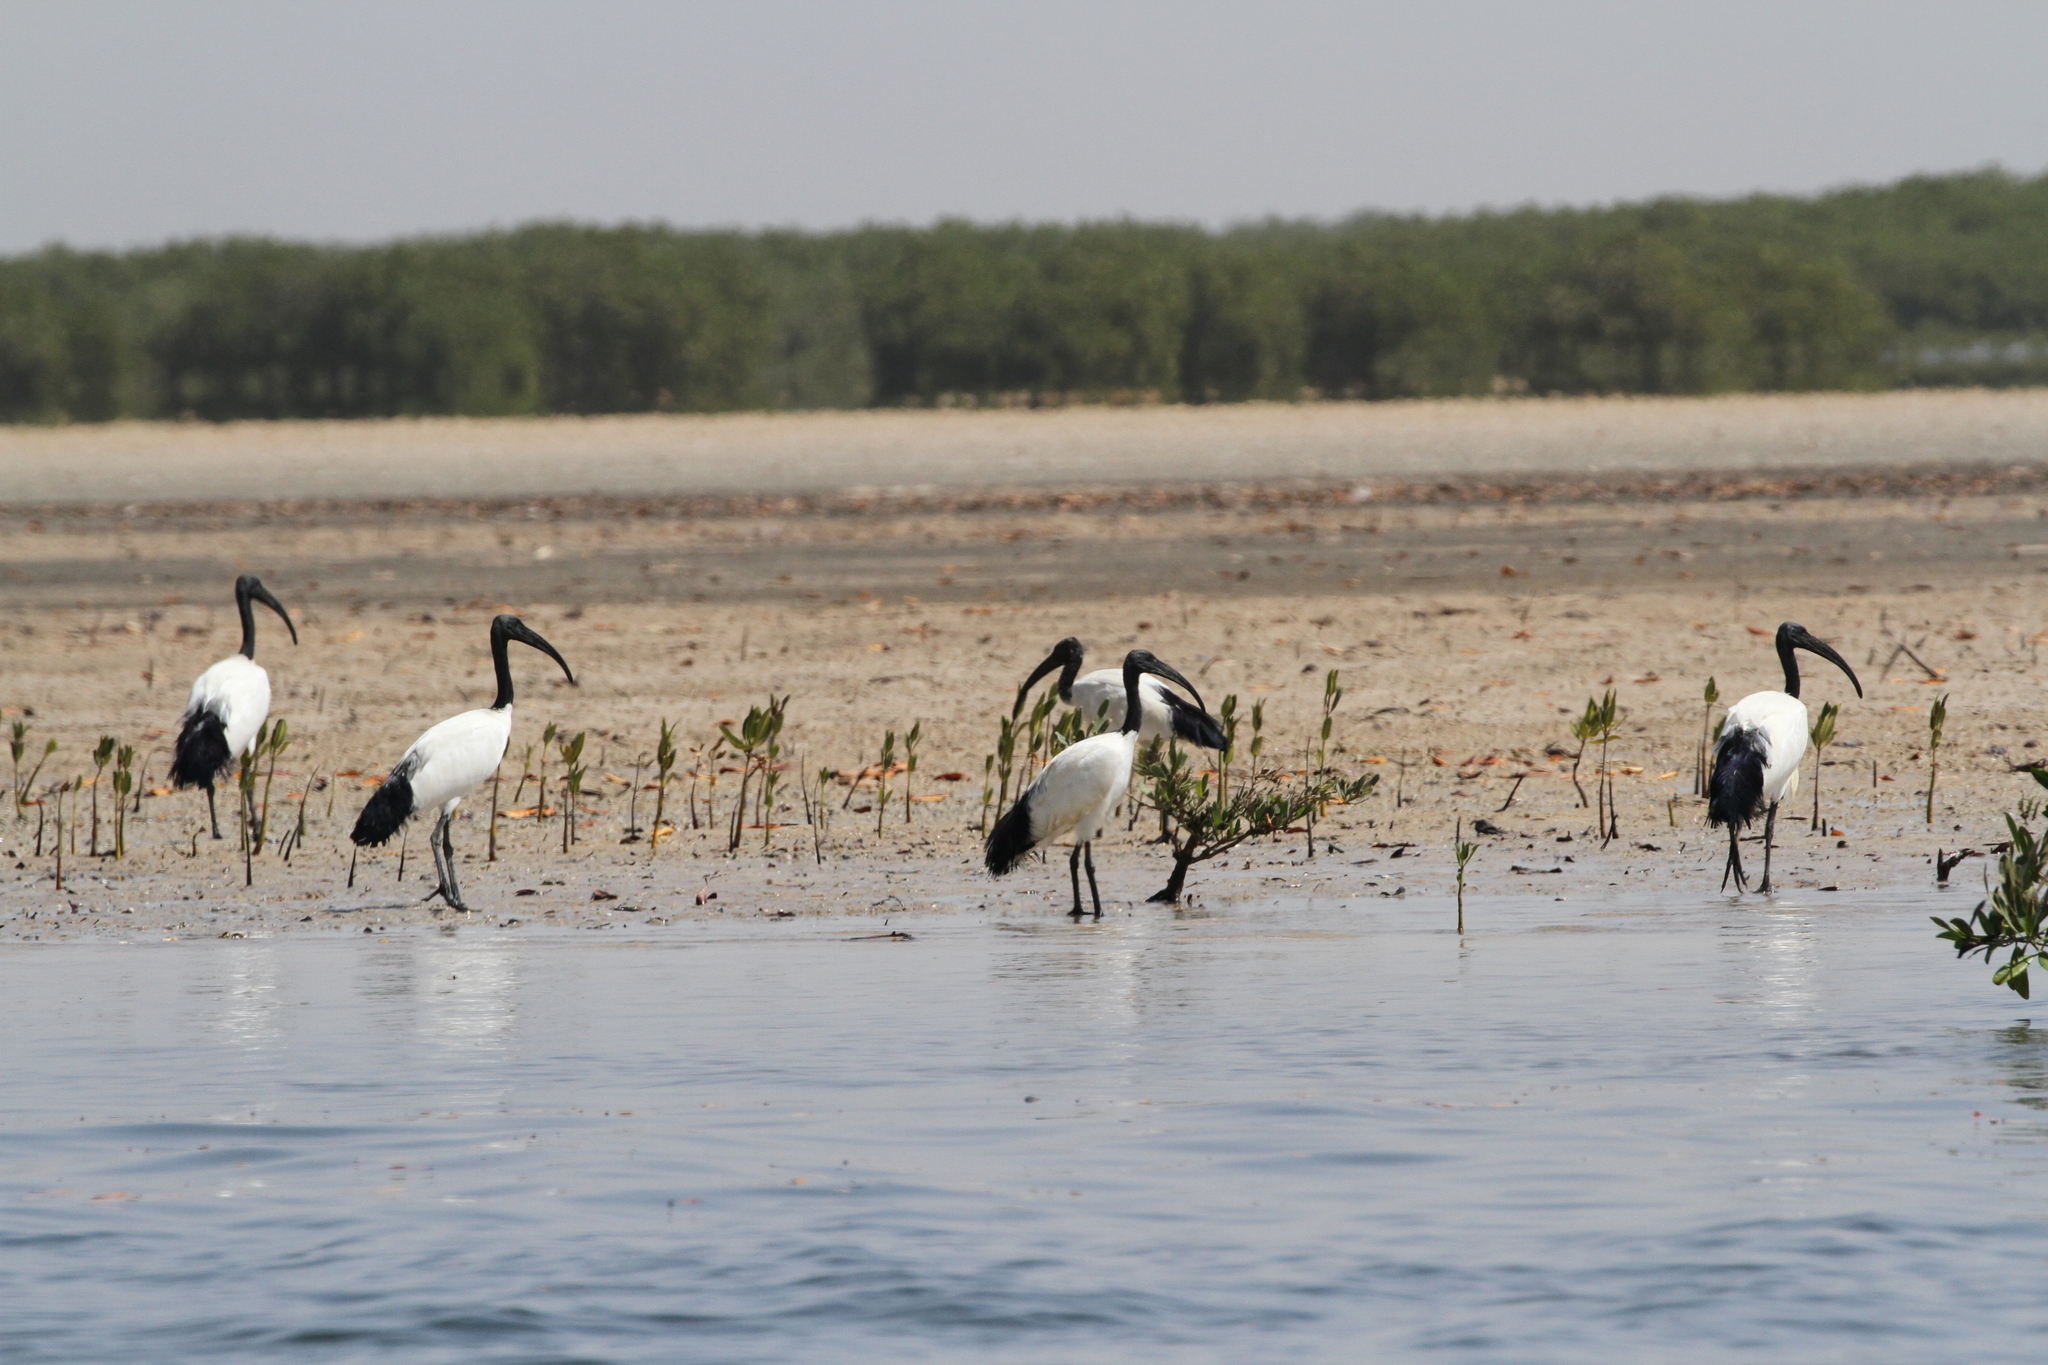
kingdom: Animalia
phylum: Chordata
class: Aves
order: Pelecaniformes
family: Threskiornithidae
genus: Threskiornis
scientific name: Threskiornis aethiopicus
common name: Sacred ibis
